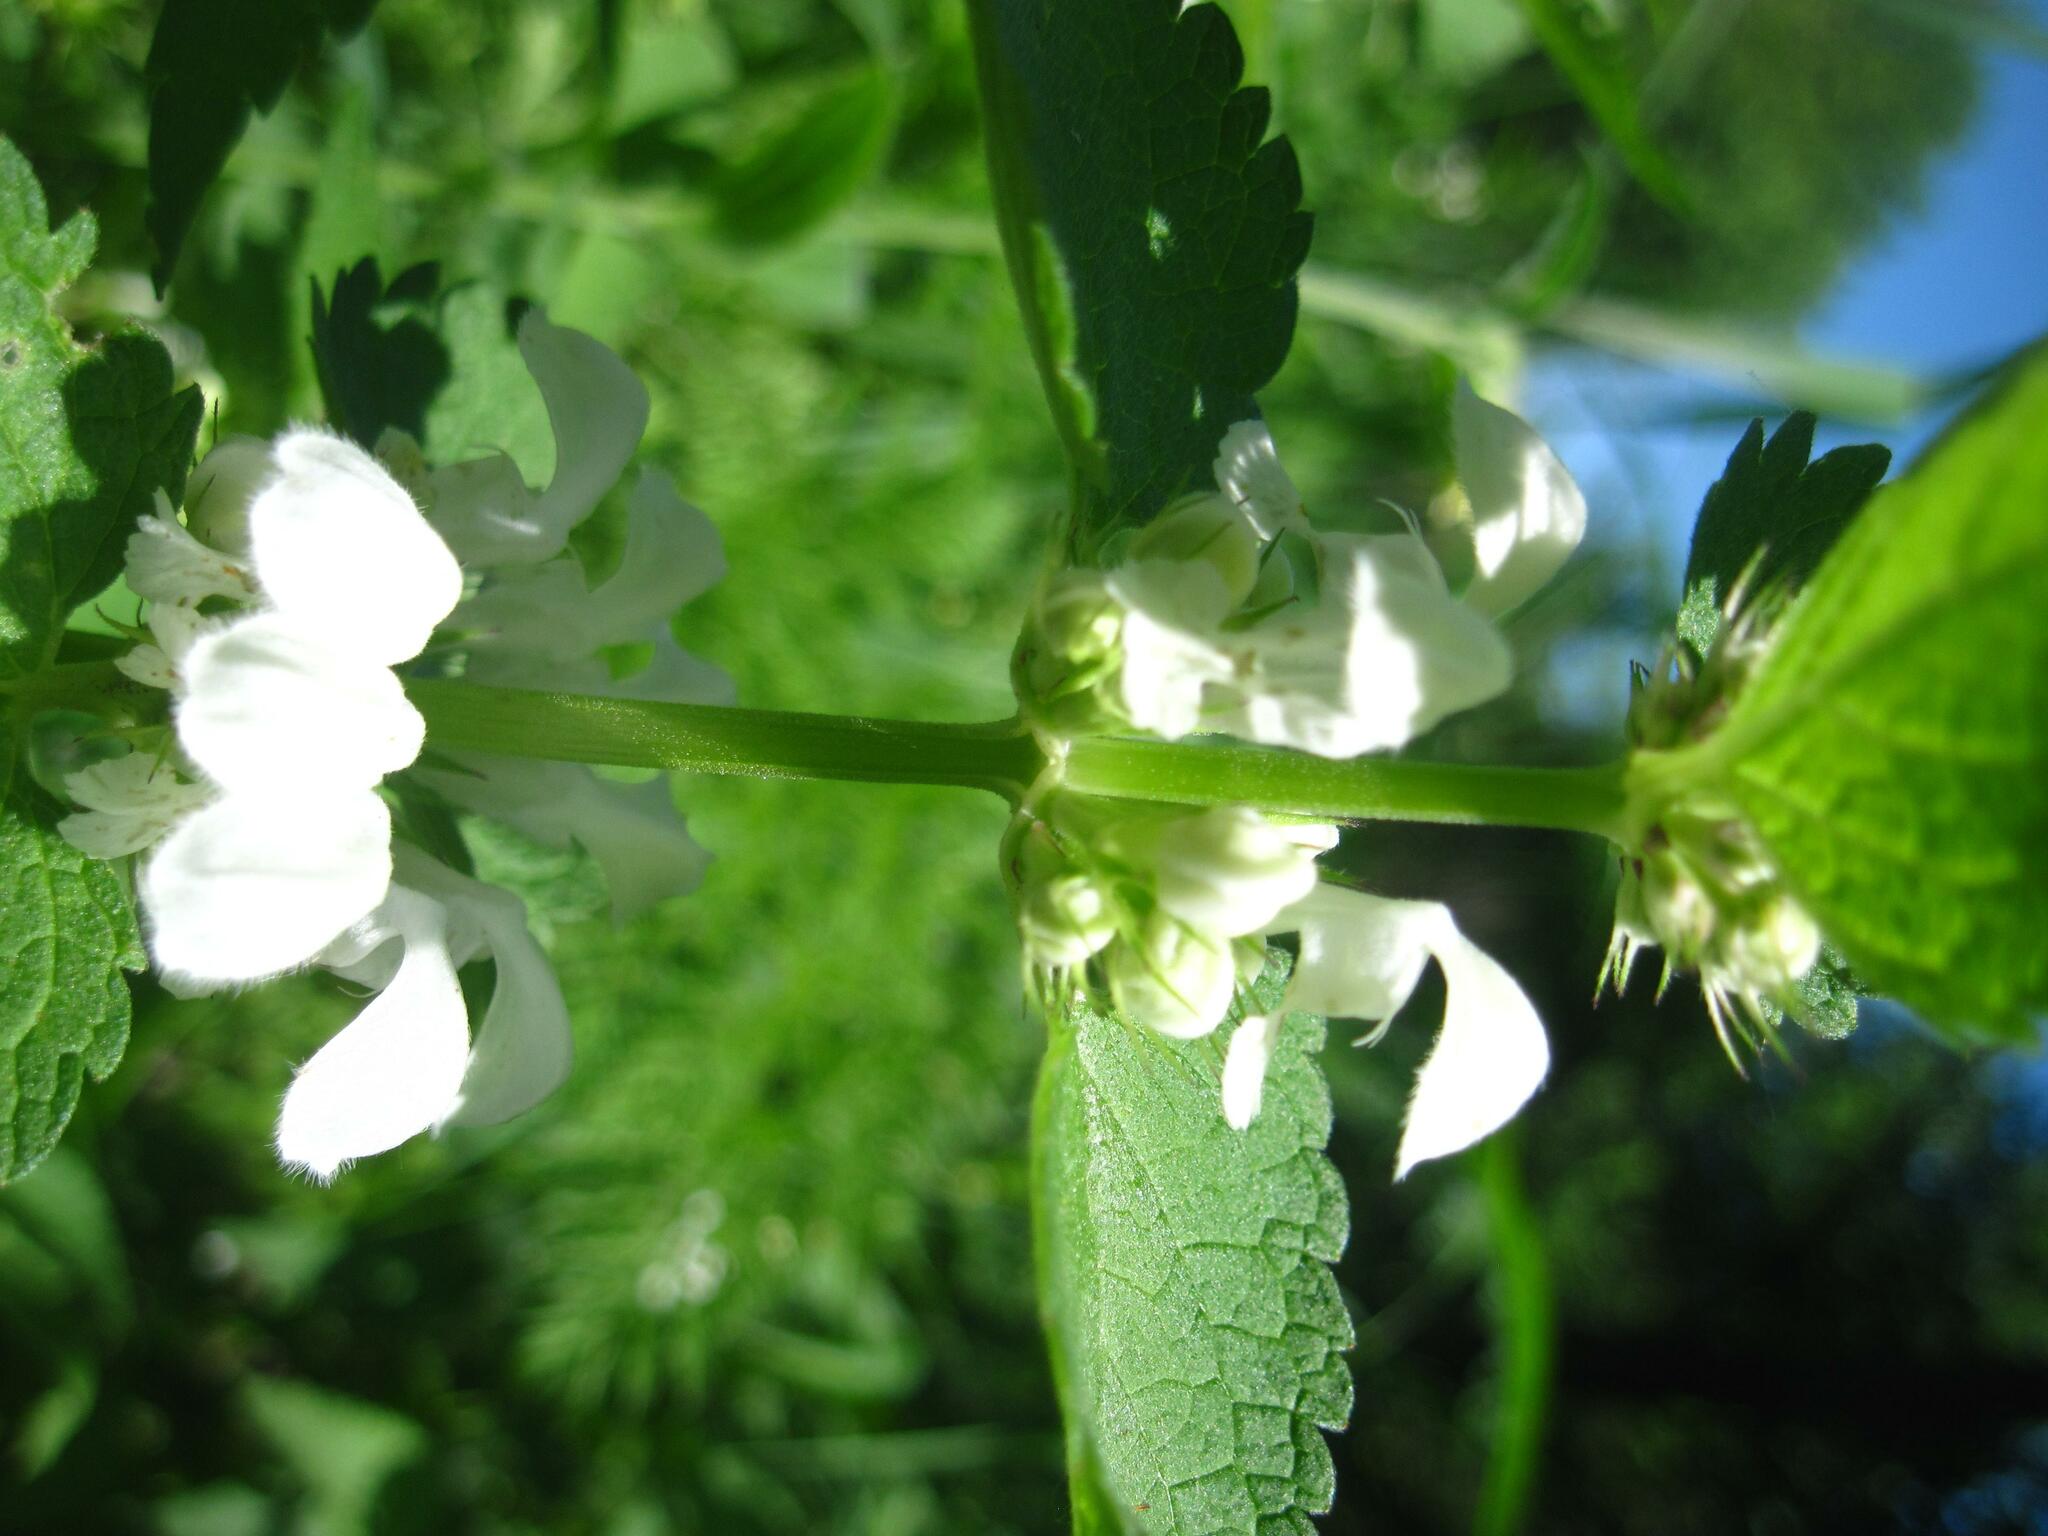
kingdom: Plantae
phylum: Tracheophyta
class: Magnoliopsida
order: Lamiales
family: Lamiaceae
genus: Lamium
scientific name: Lamium album
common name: White dead-nettle
